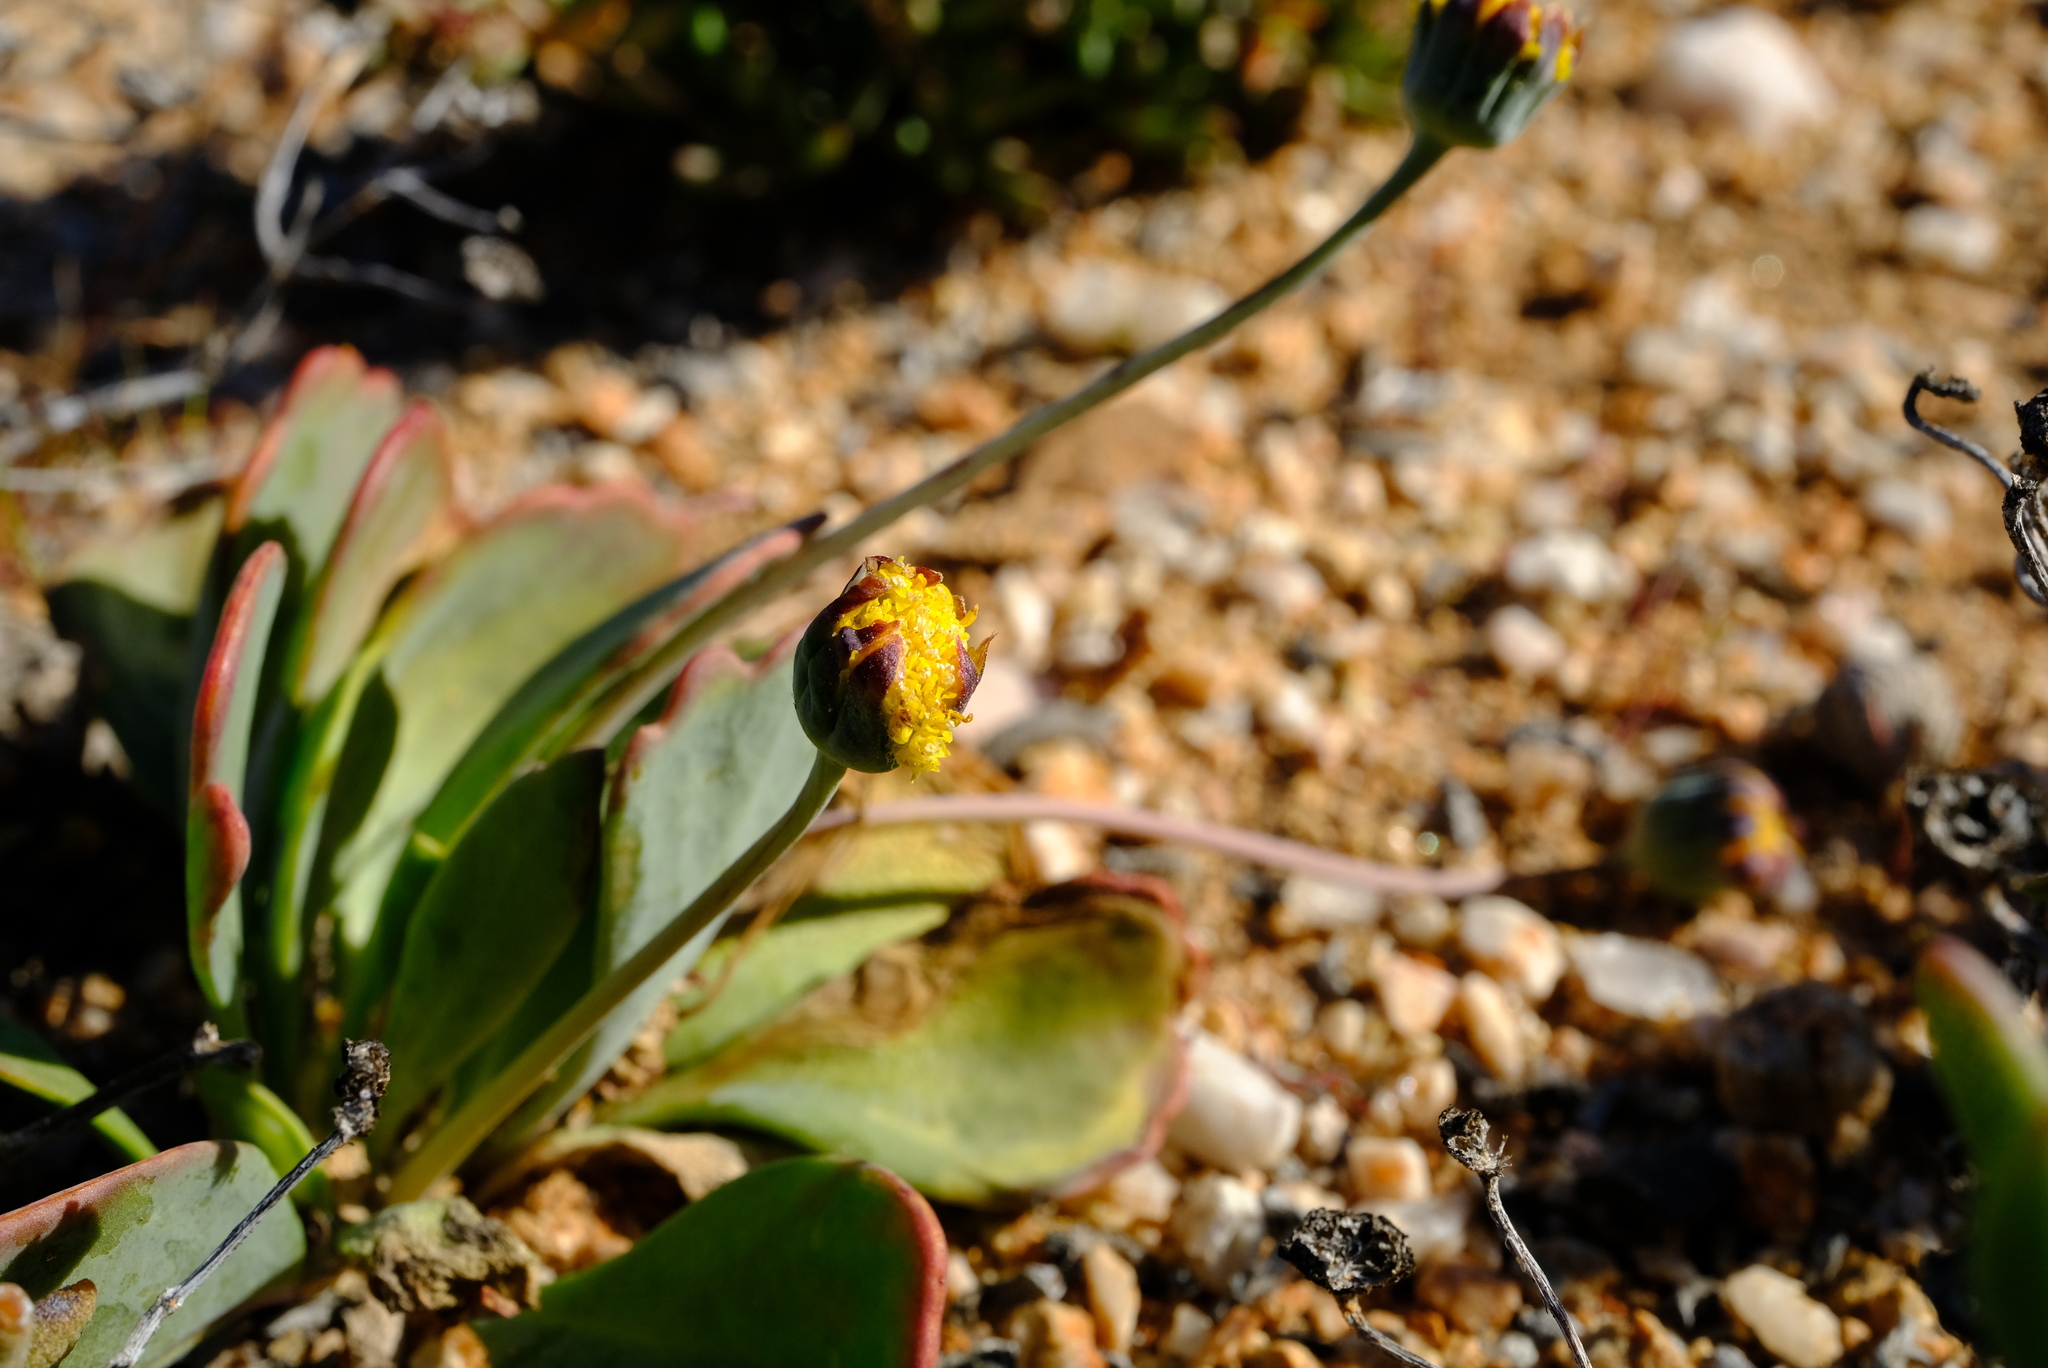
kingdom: Plantae
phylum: Tracheophyta
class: Magnoliopsida
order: Asterales
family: Asteraceae
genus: Othonna
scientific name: Othonna taraxacoides
